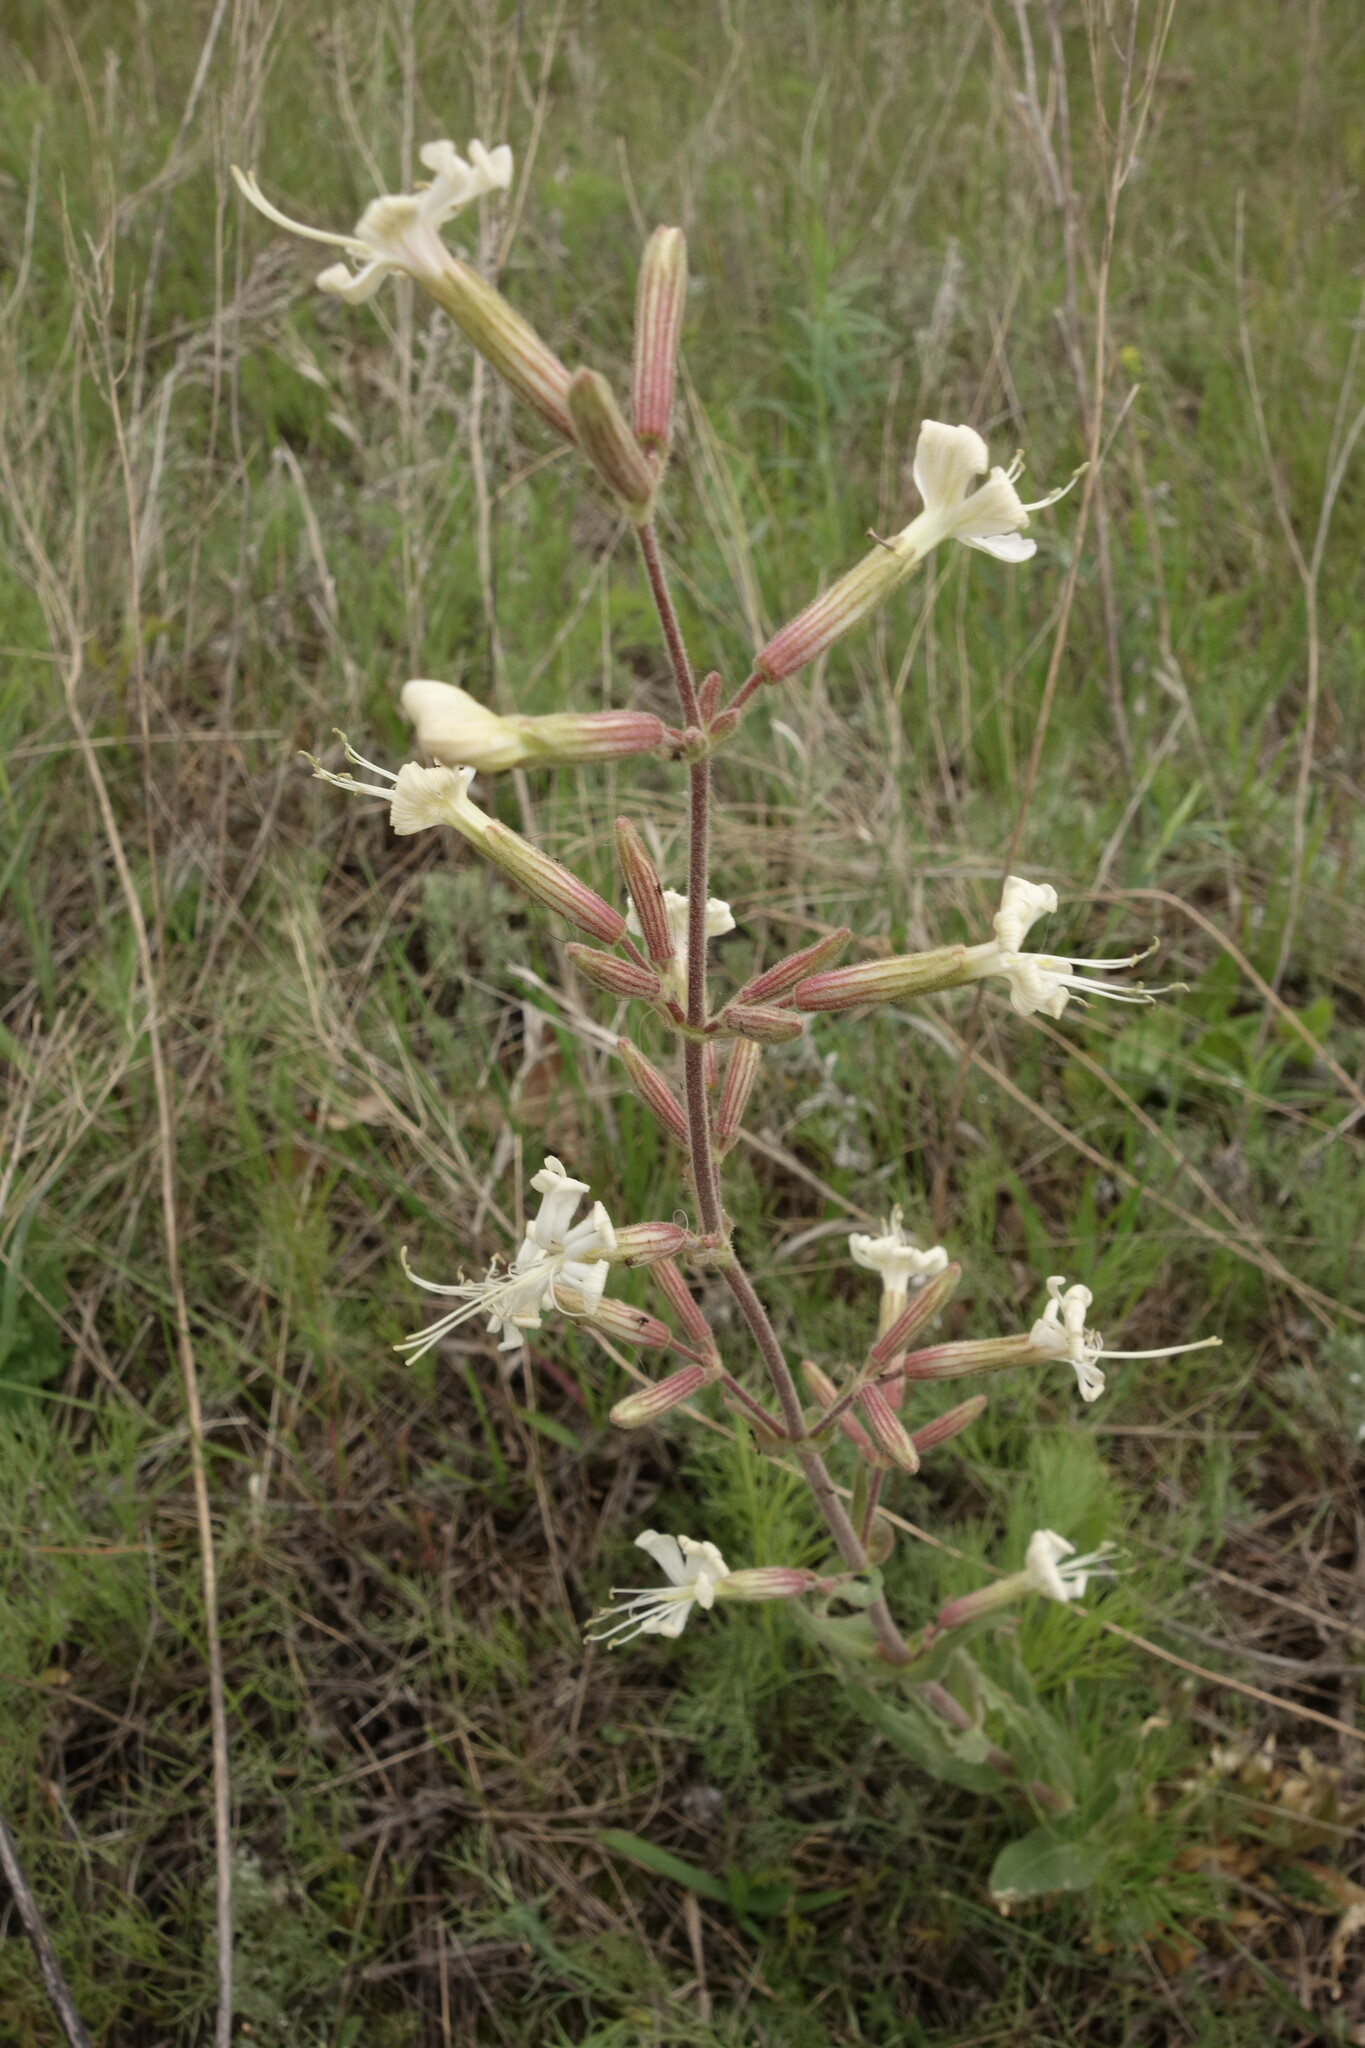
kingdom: Plantae
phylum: Tracheophyta
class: Magnoliopsida
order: Caryophyllales
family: Caryophyllaceae
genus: Silene
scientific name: Silene viscosa
